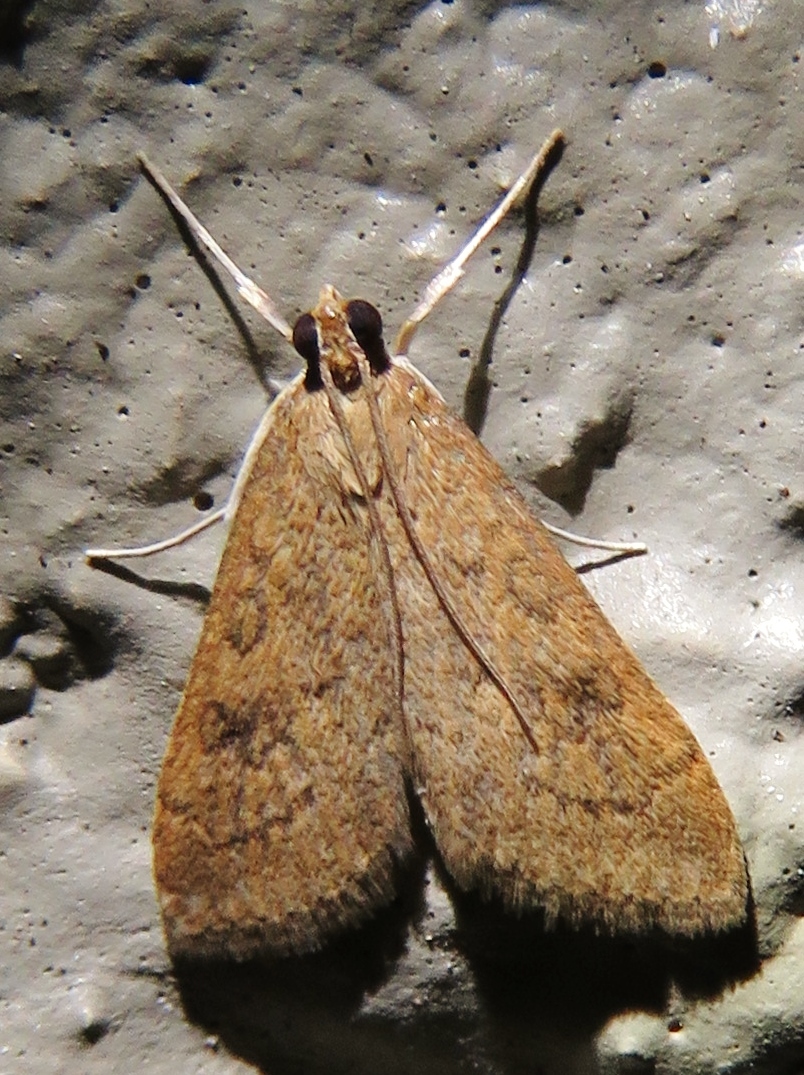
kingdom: Animalia
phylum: Arthropoda
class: Insecta
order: Lepidoptera
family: Crambidae
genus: Udea
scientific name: Udea rubigalis
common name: Celery leaftier moth
